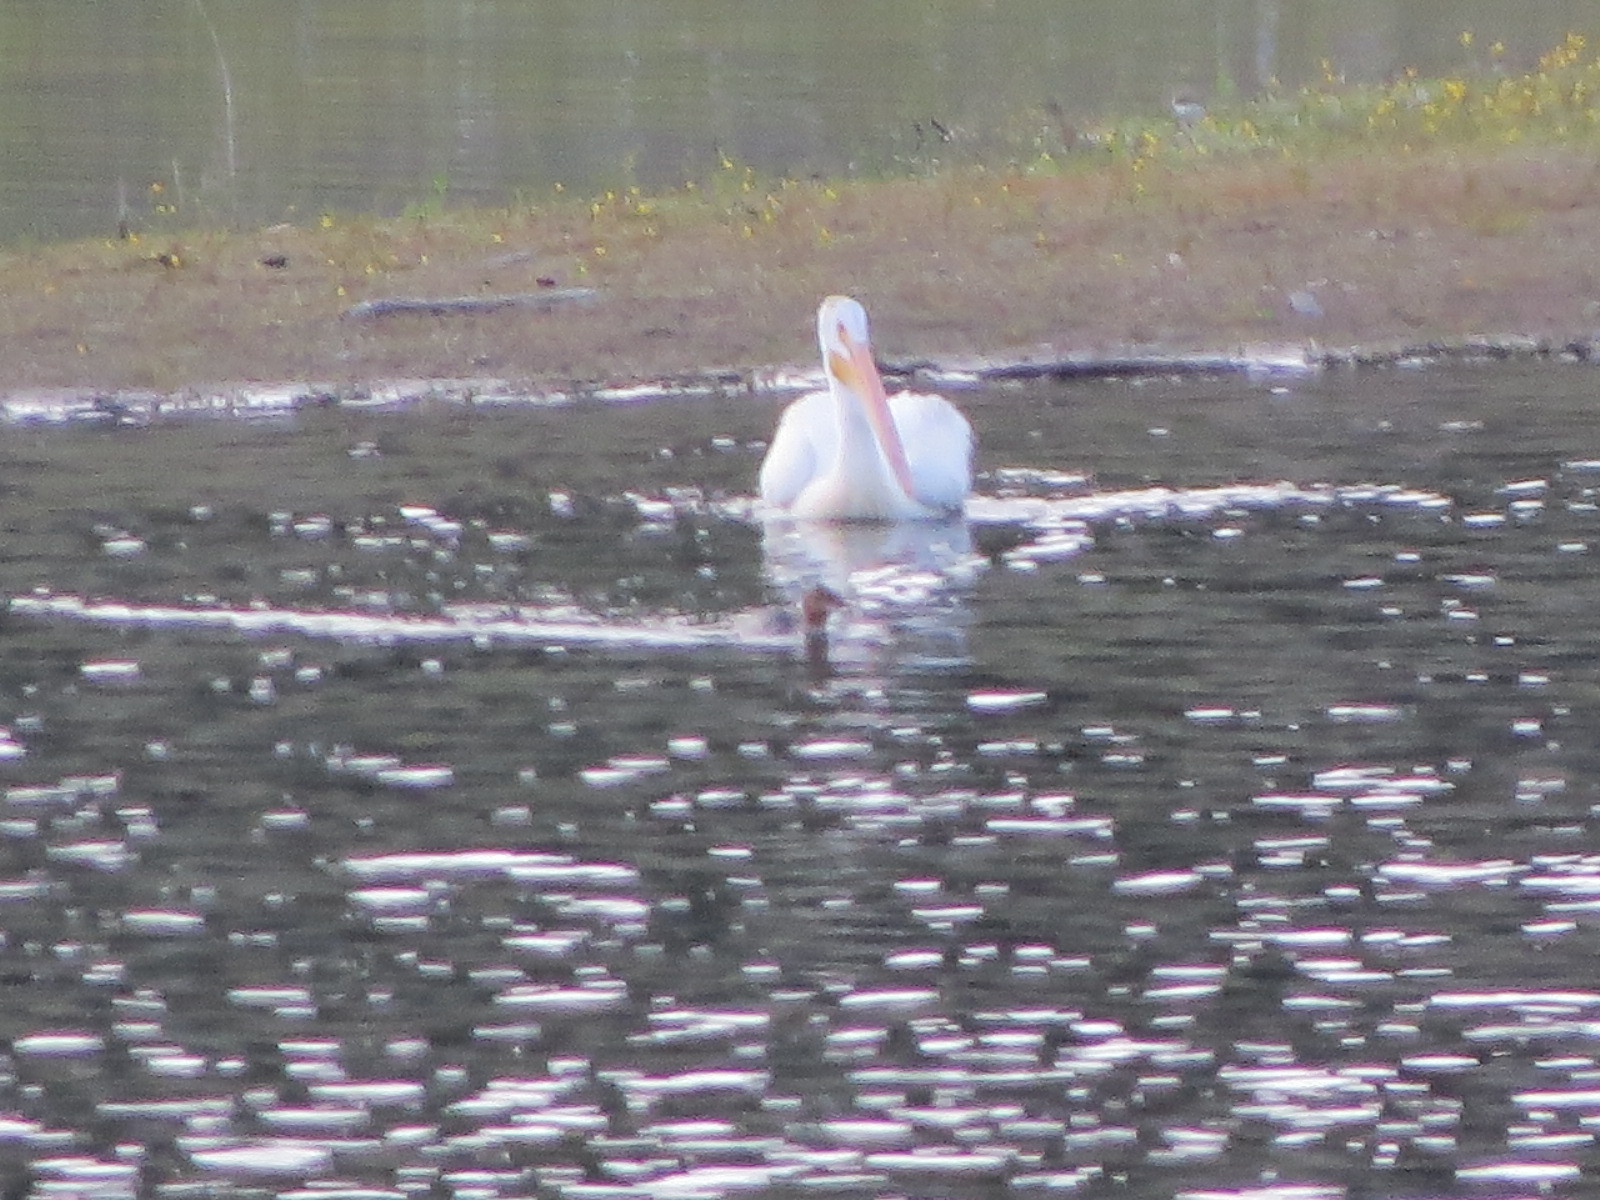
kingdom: Animalia
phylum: Chordata
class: Aves
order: Anseriformes
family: Anatidae
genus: Mergus
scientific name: Mergus merganser
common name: Common merganser
